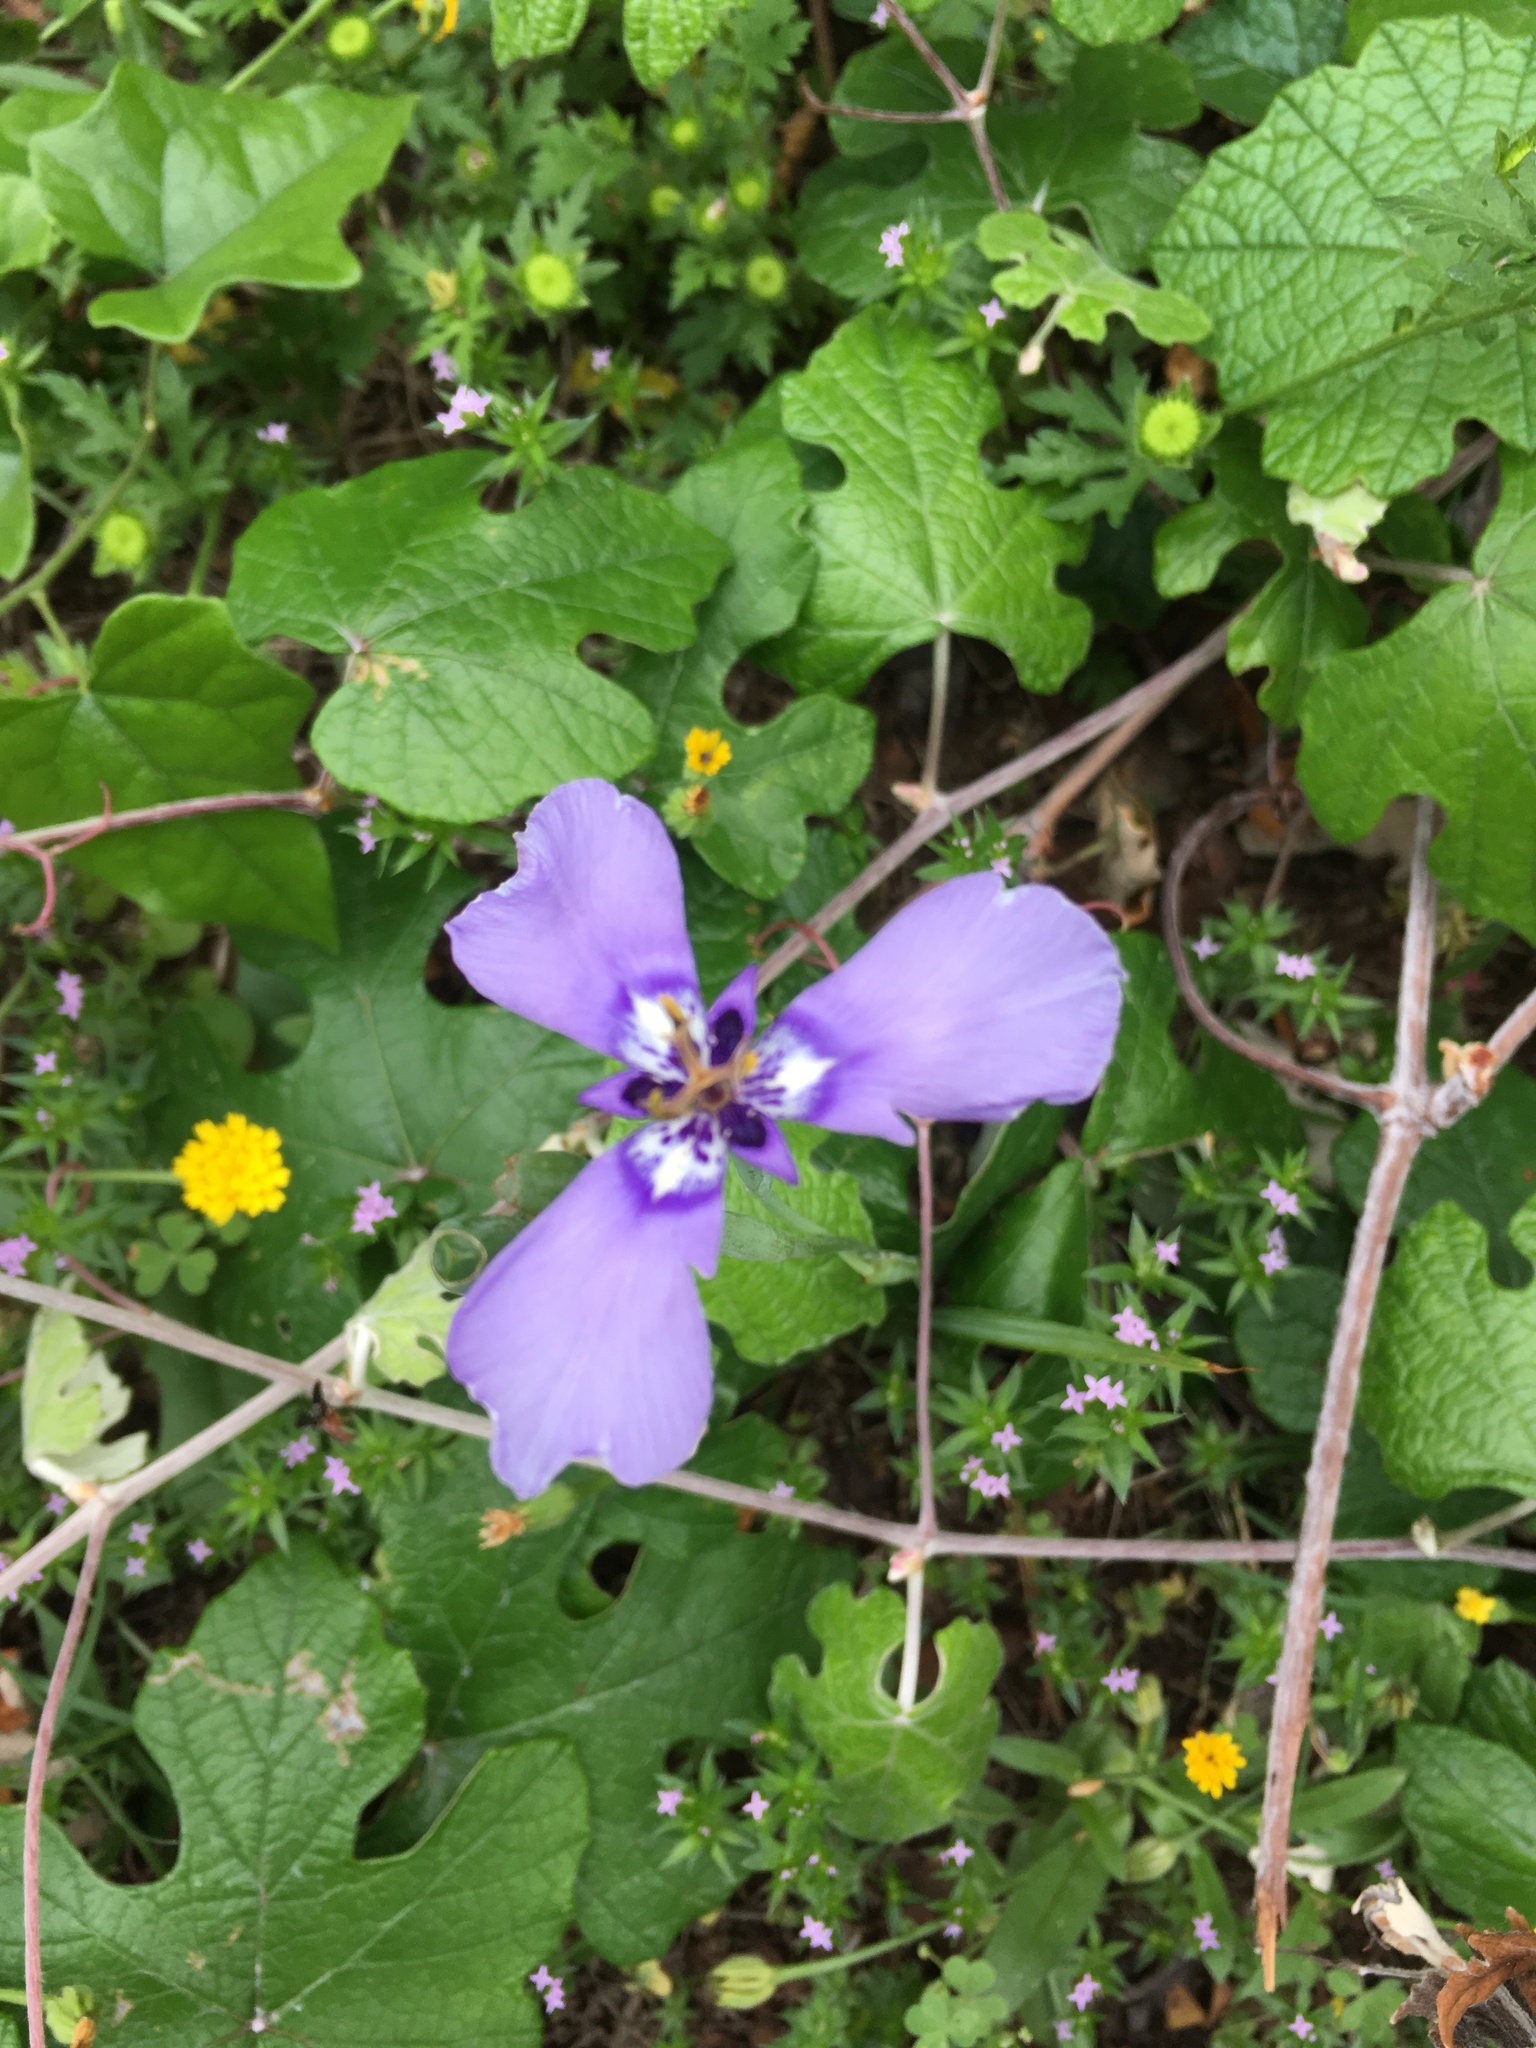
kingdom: Plantae
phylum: Tracheophyta
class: Liliopsida
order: Asparagales
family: Iridaceae
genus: Herbertia
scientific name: Herbertia lahue
